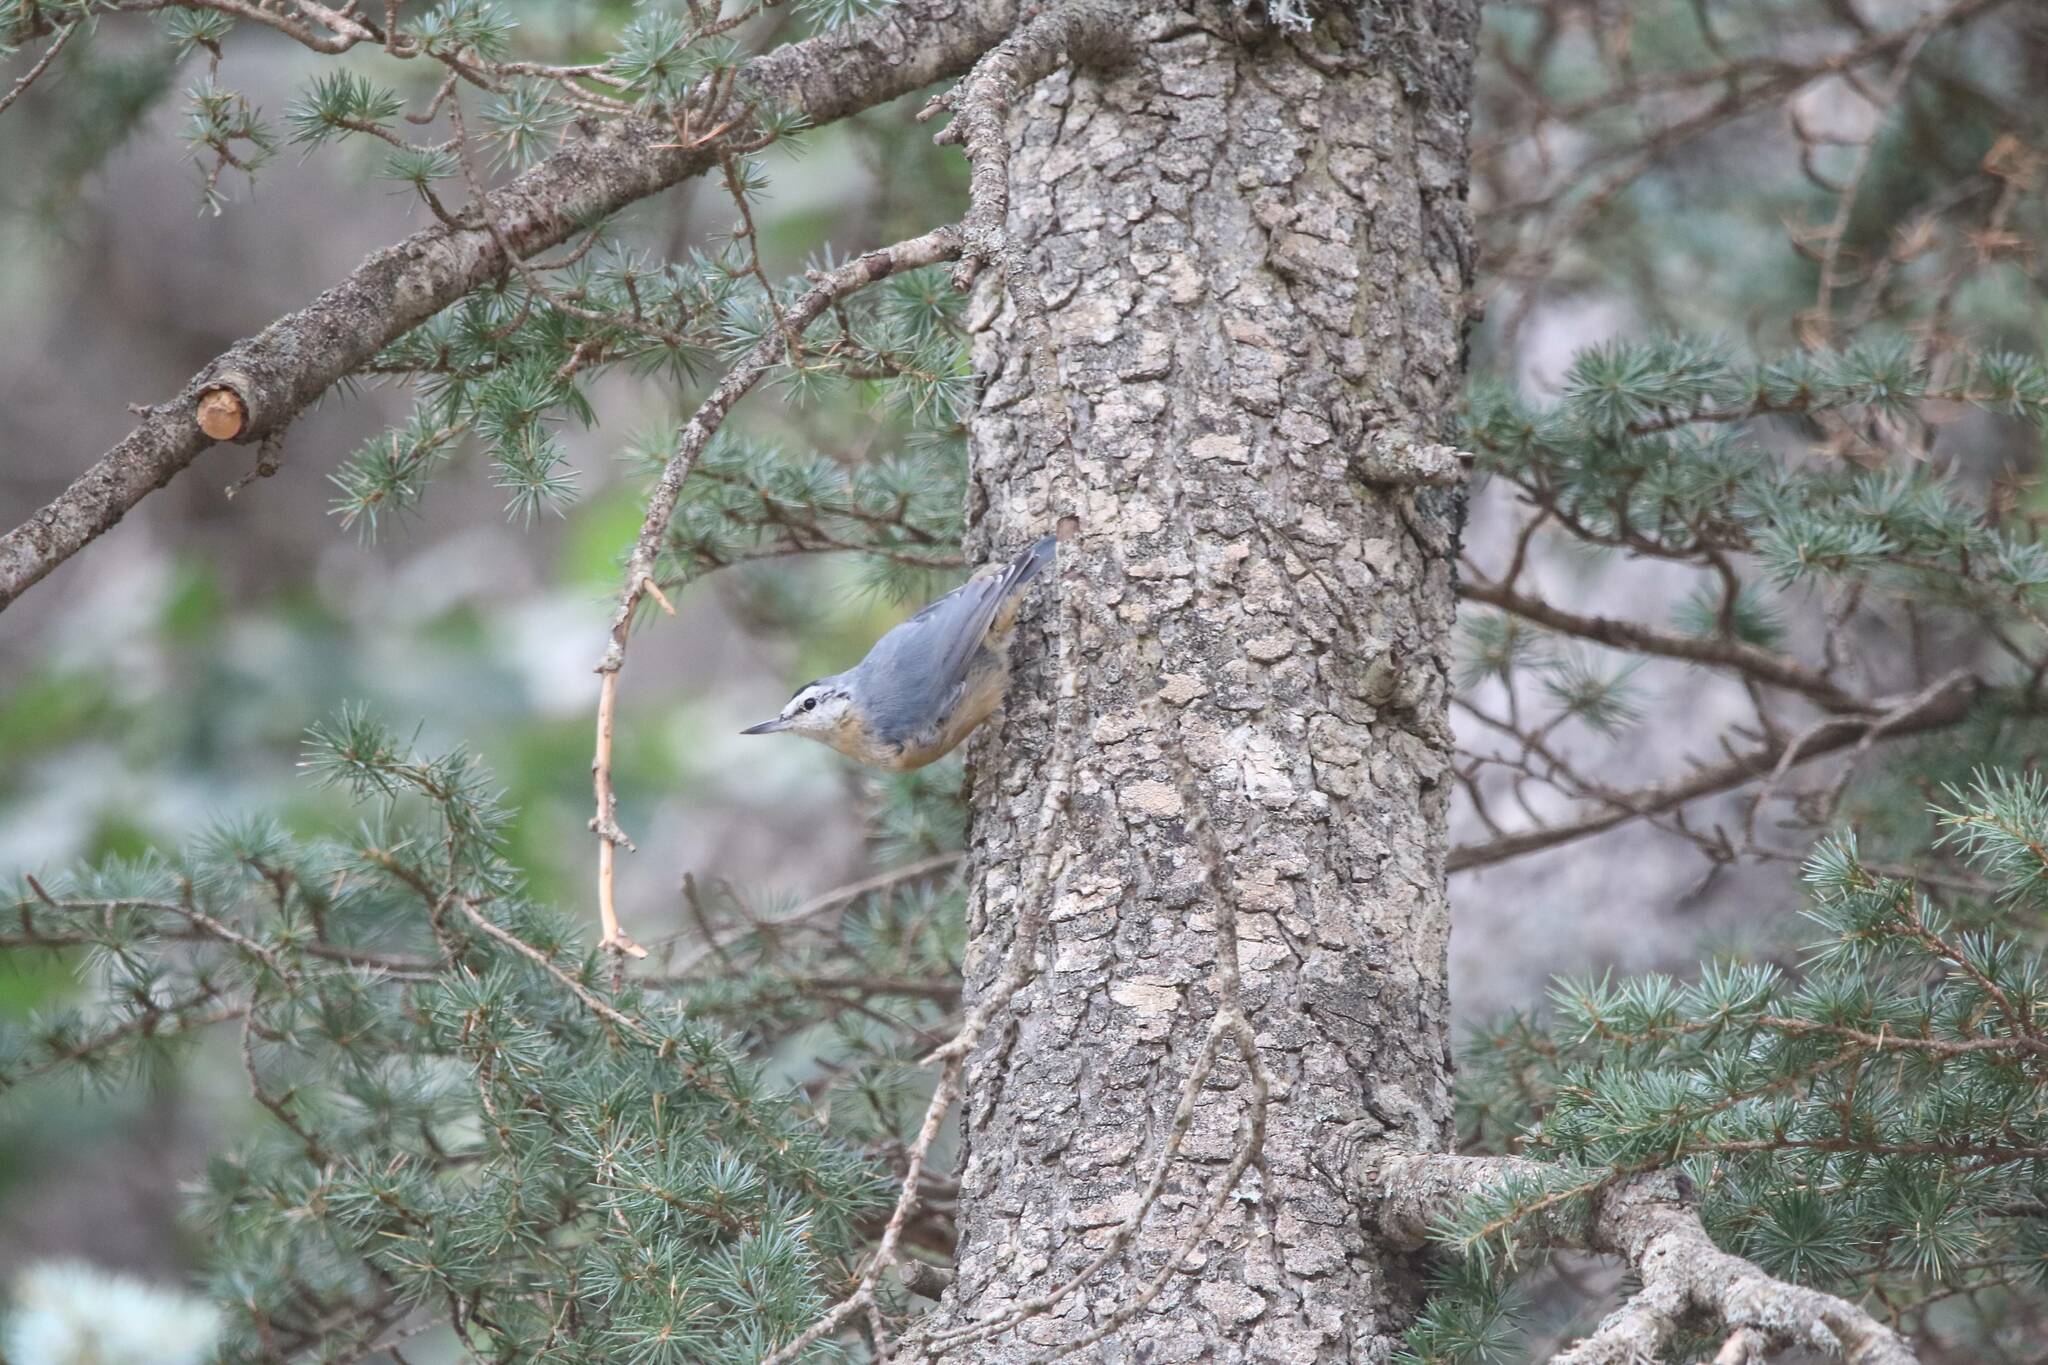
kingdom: Animalia
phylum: Chordata
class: Aves
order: Passeriformes
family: Sittidae
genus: Sitta
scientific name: Sitta ledanti
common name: Algerian nuthatch
